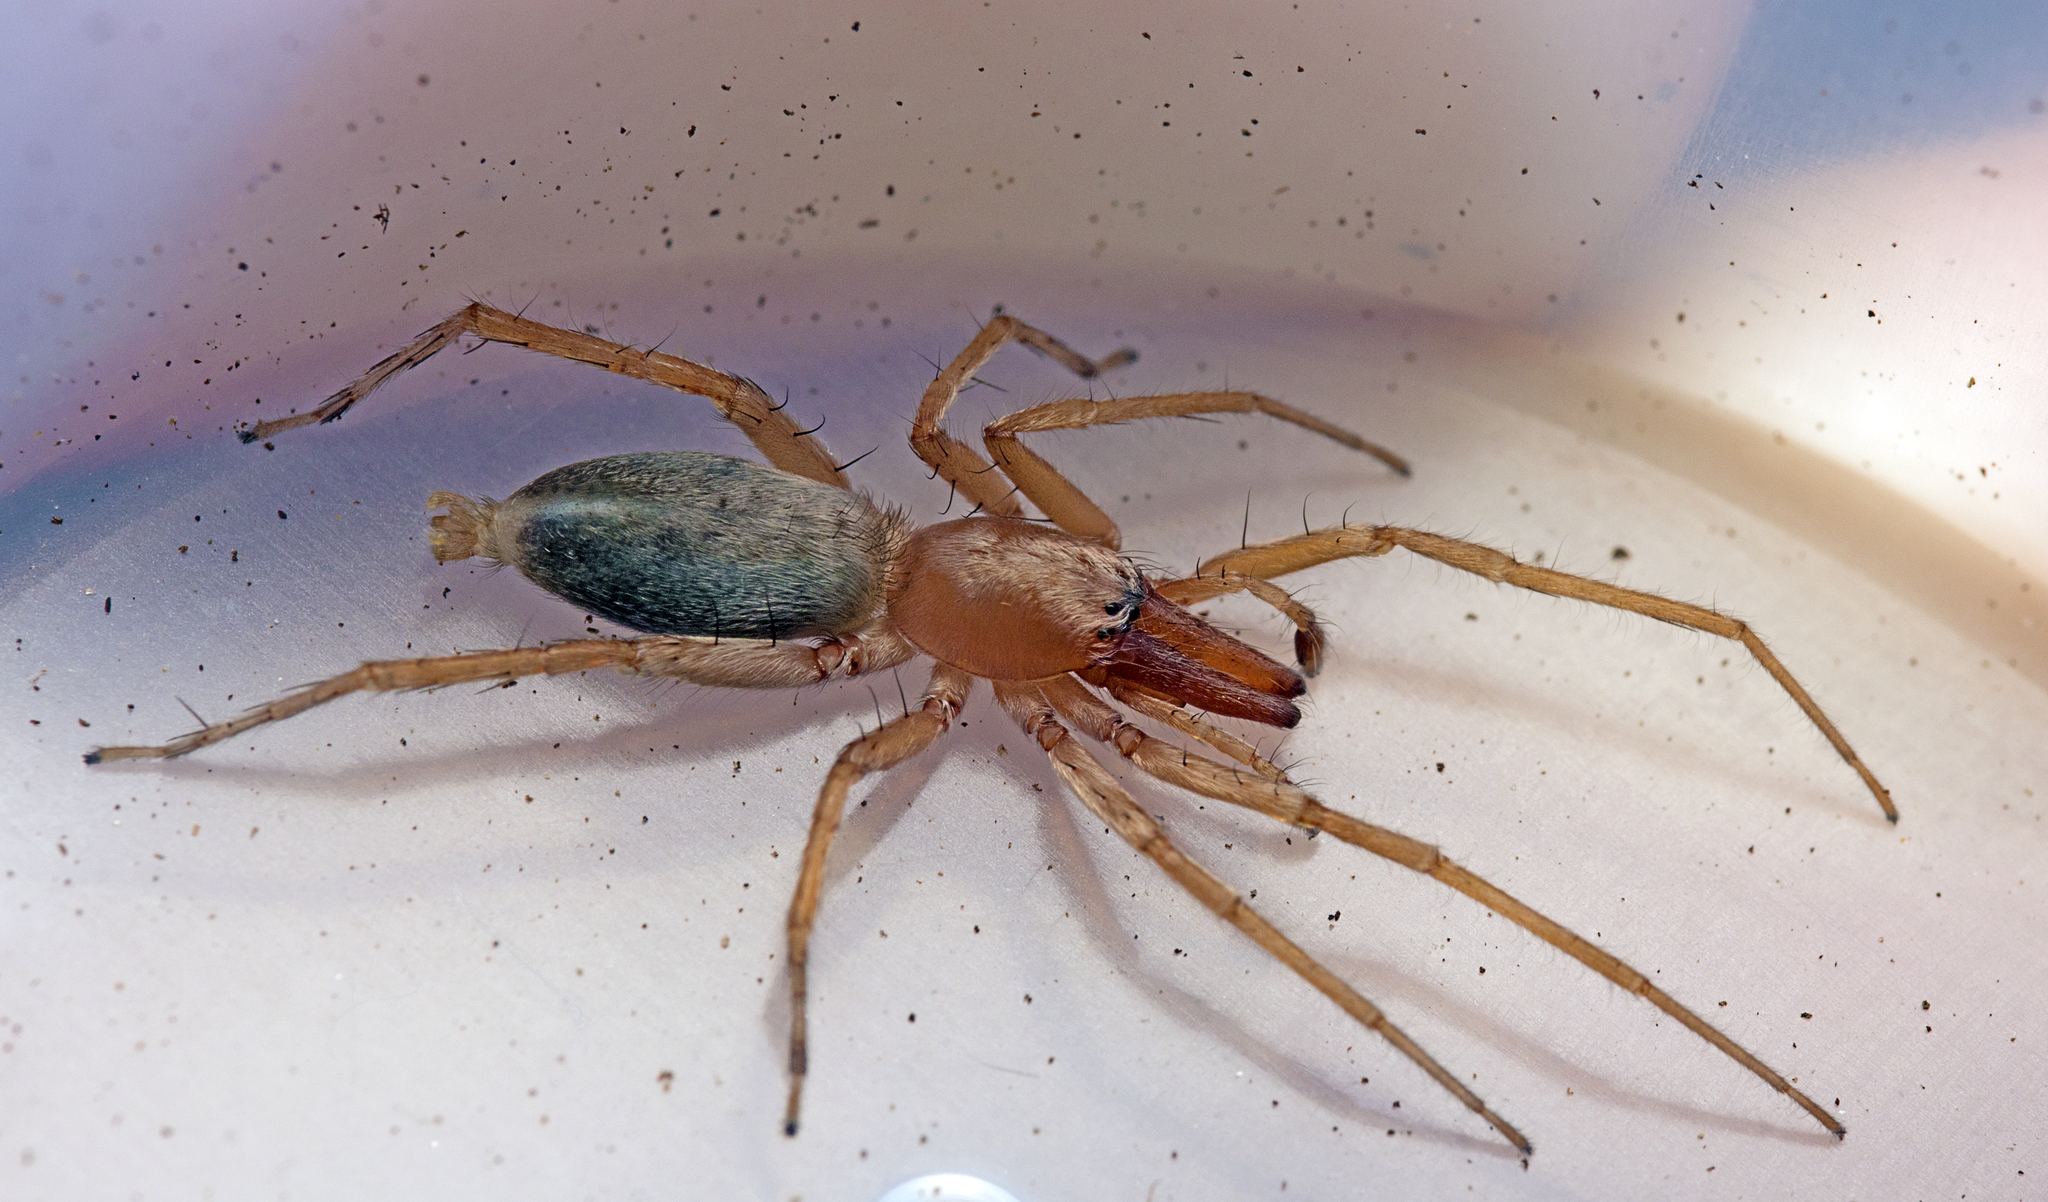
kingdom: Animalia
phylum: Arthropoda
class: Arachnida
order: Araneae
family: Clubionidae
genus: Clubiona
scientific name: Clubiona cycladata
